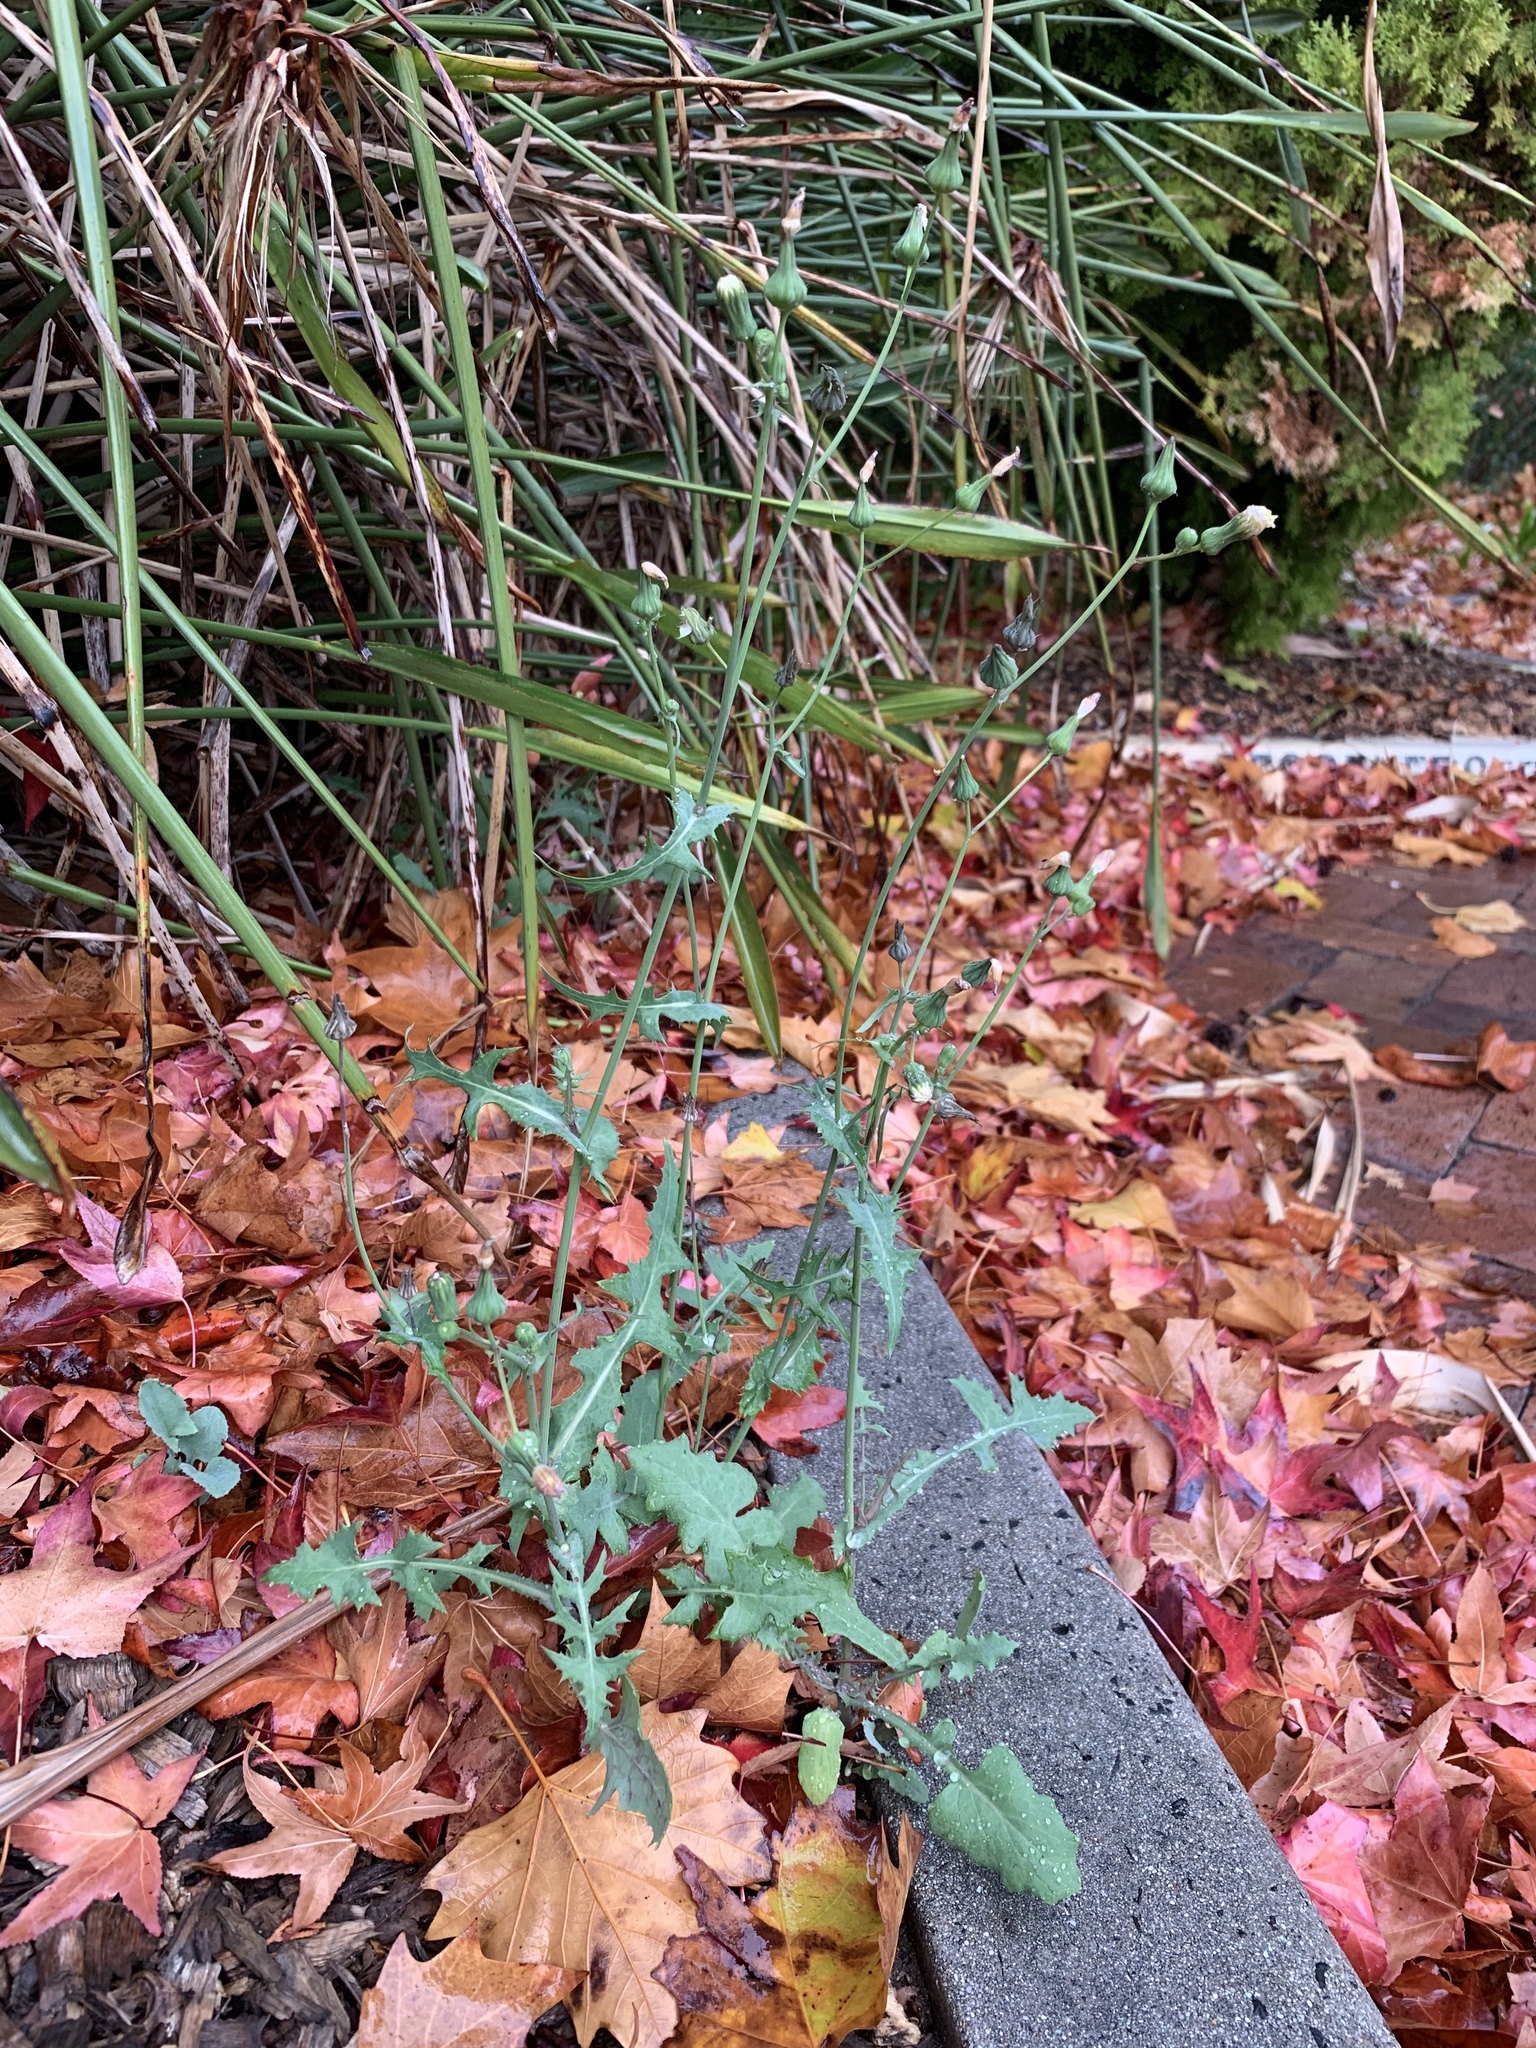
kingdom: Plantae
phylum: Tracheophyta
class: Magnoliopsida
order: Asterales
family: Asteraceae
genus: Sonchus
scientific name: Sonchus oleraceus
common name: Common sowthistle
